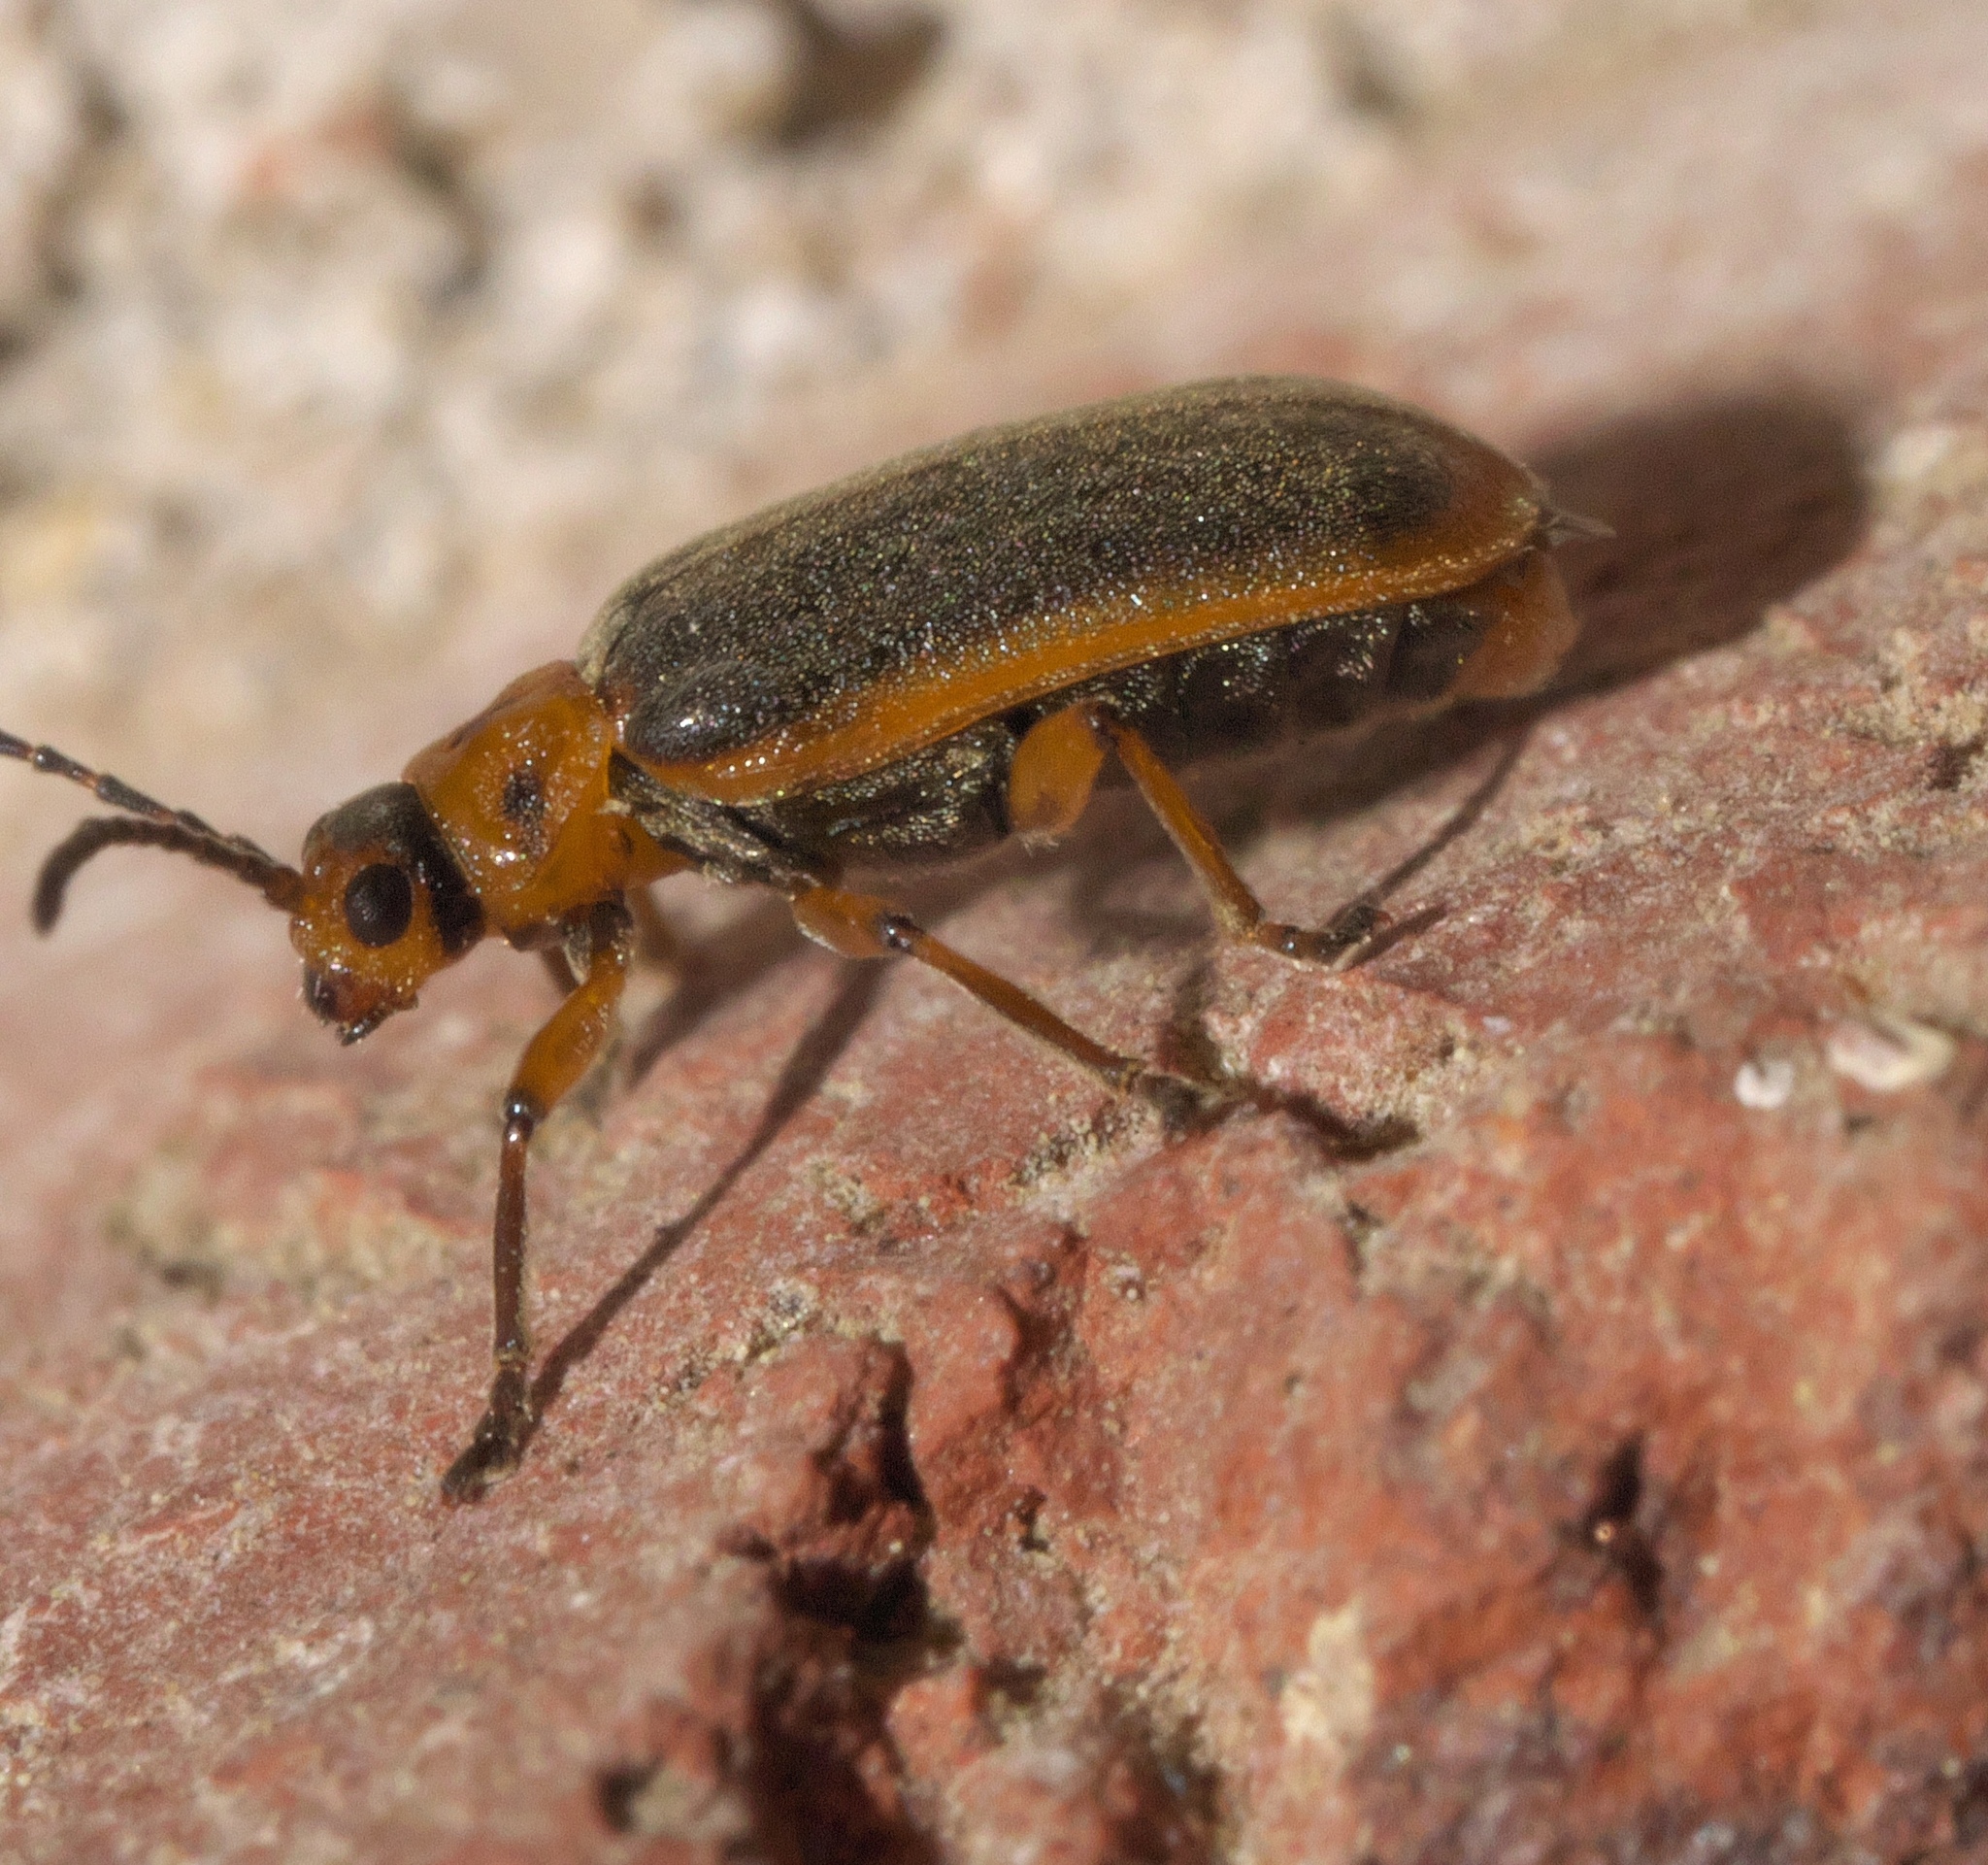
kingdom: Animalia
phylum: Arthropoda
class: Insecta
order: Coleoptera
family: Chrysomelidae
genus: Galerucella
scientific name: Galerucella nymphaeae
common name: Leaf beetle
